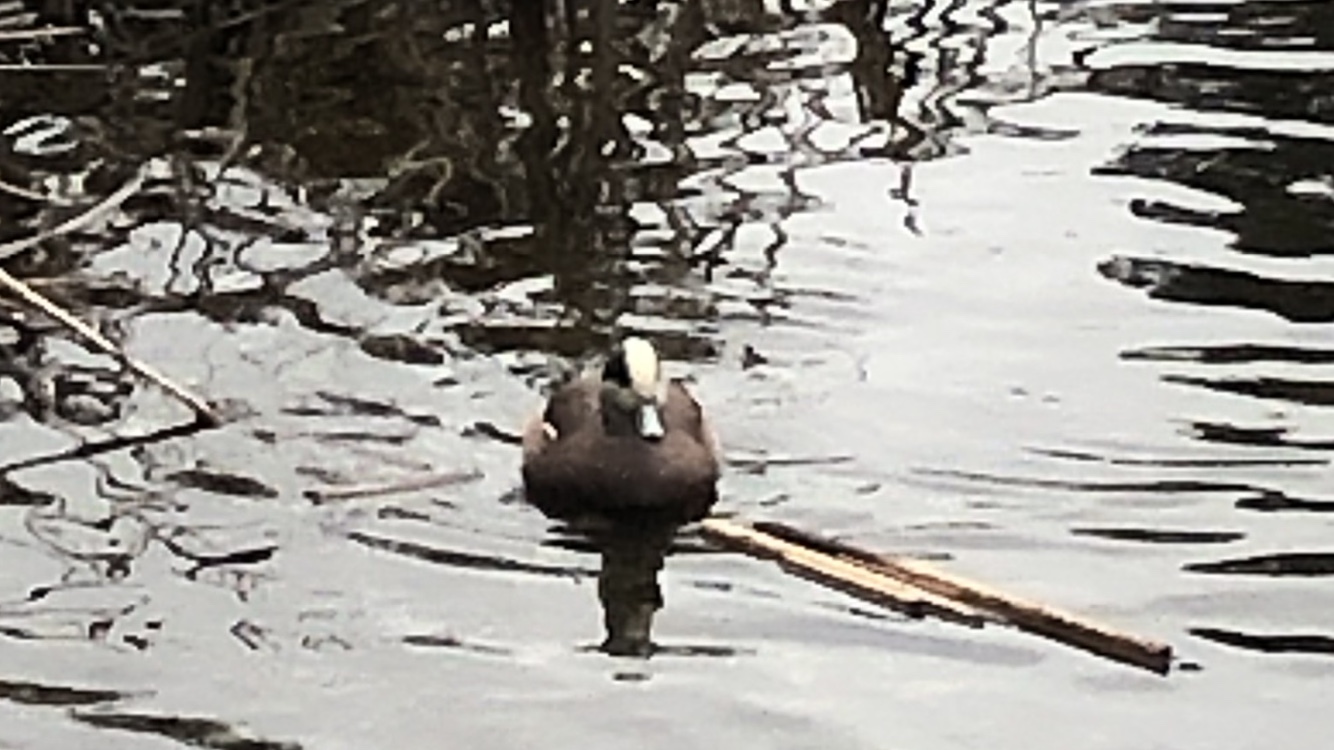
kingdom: Animalia
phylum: Chordata
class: Aves
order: Anseriformes
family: Anatidae
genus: Mareca
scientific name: Mareca americana
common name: American wigeon
